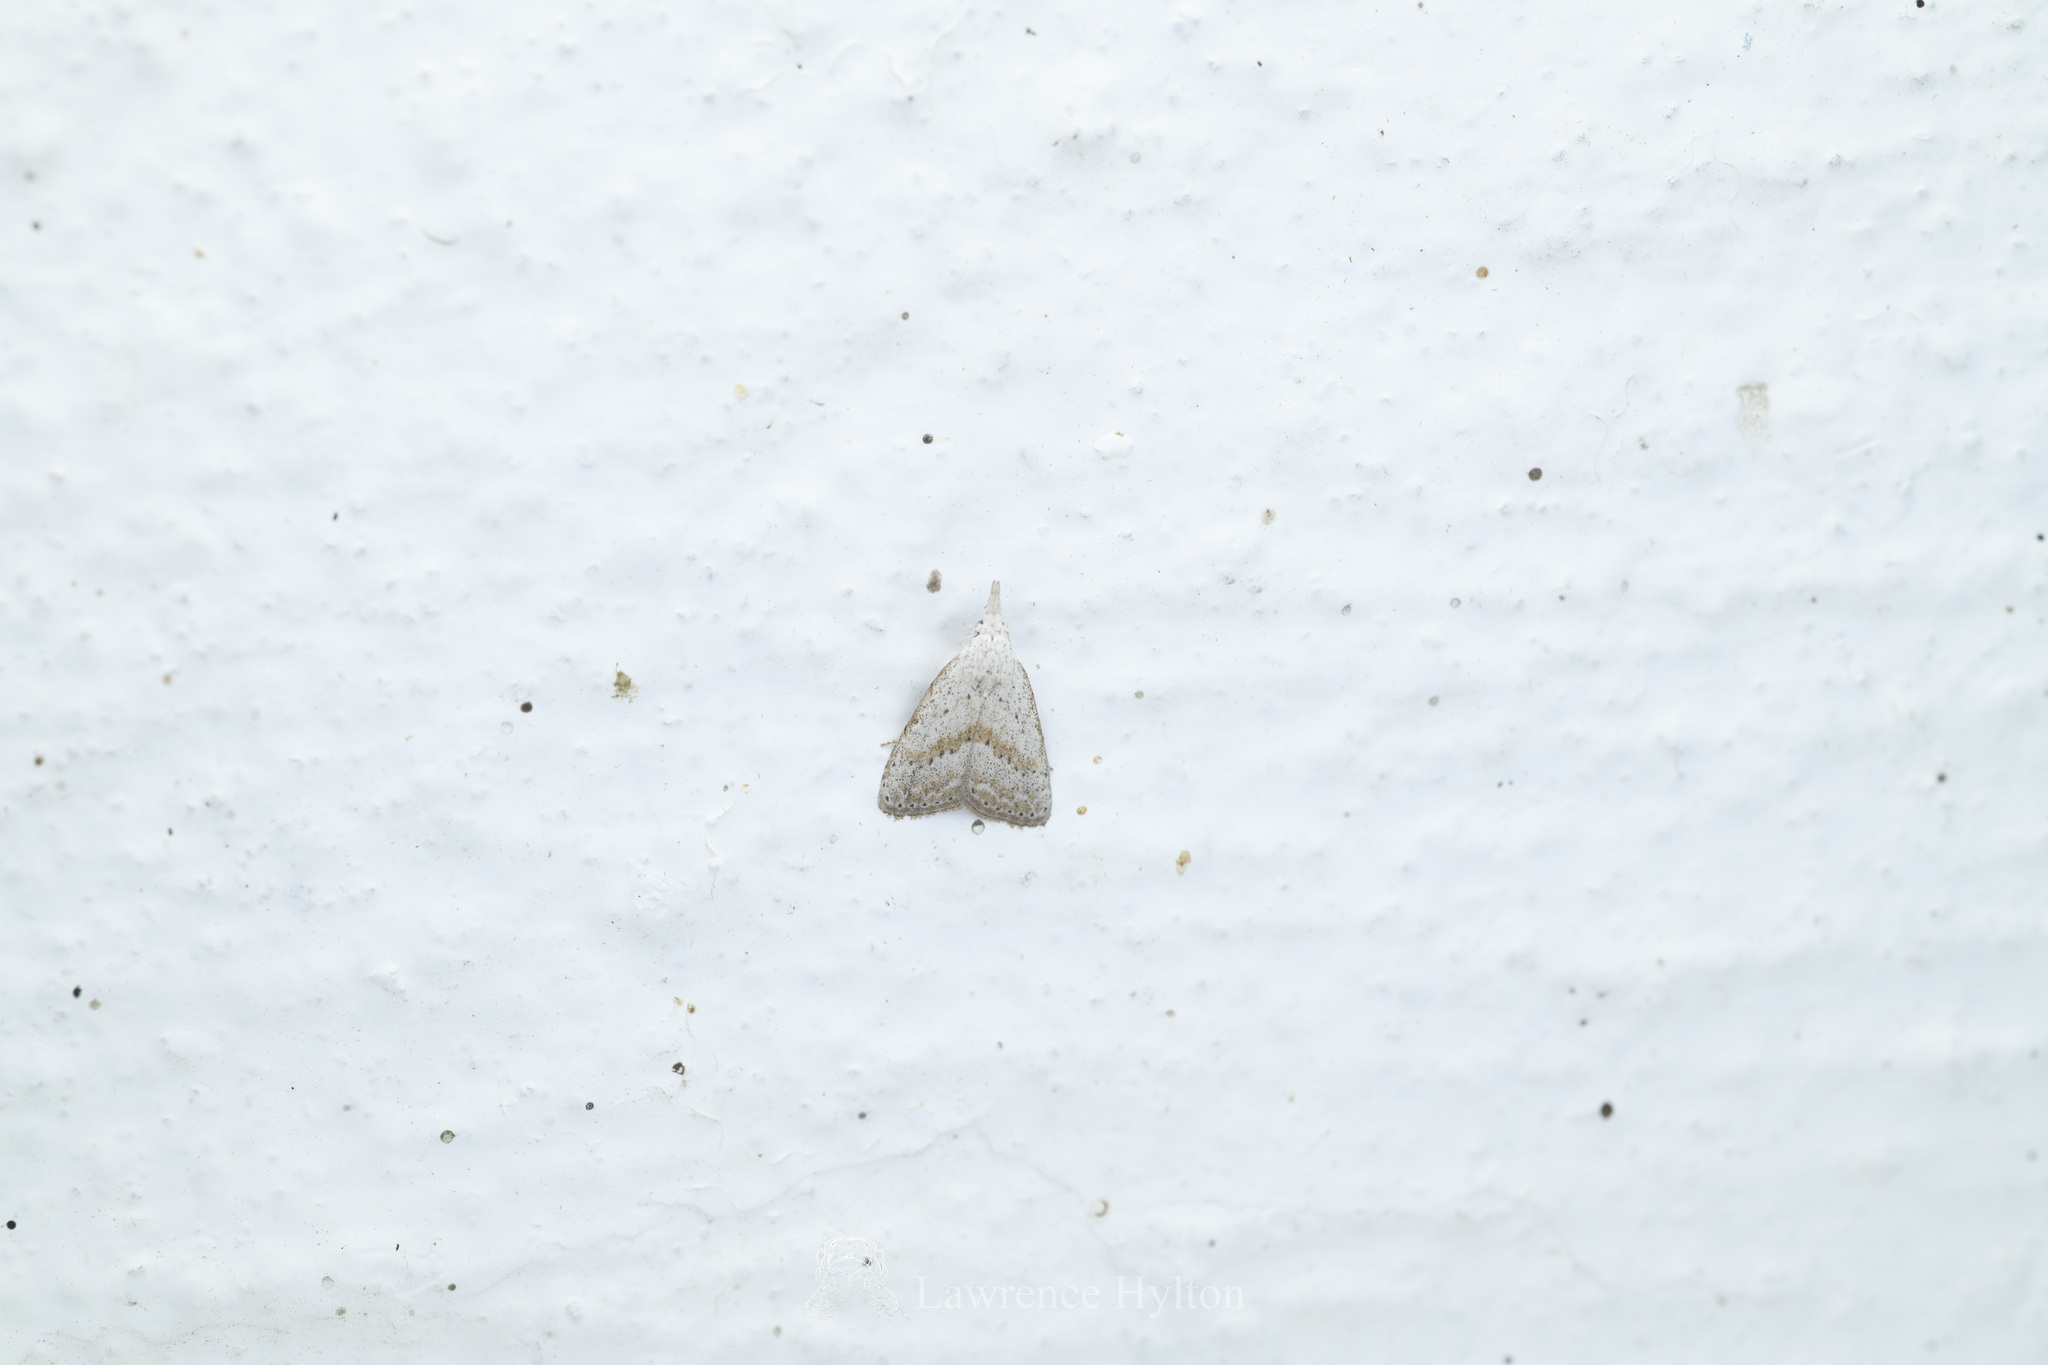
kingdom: Animalia
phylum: Arthropoda
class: Insecta
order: Lepidoptera
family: Nolidae
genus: Meganola
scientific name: Meganola brunellus
